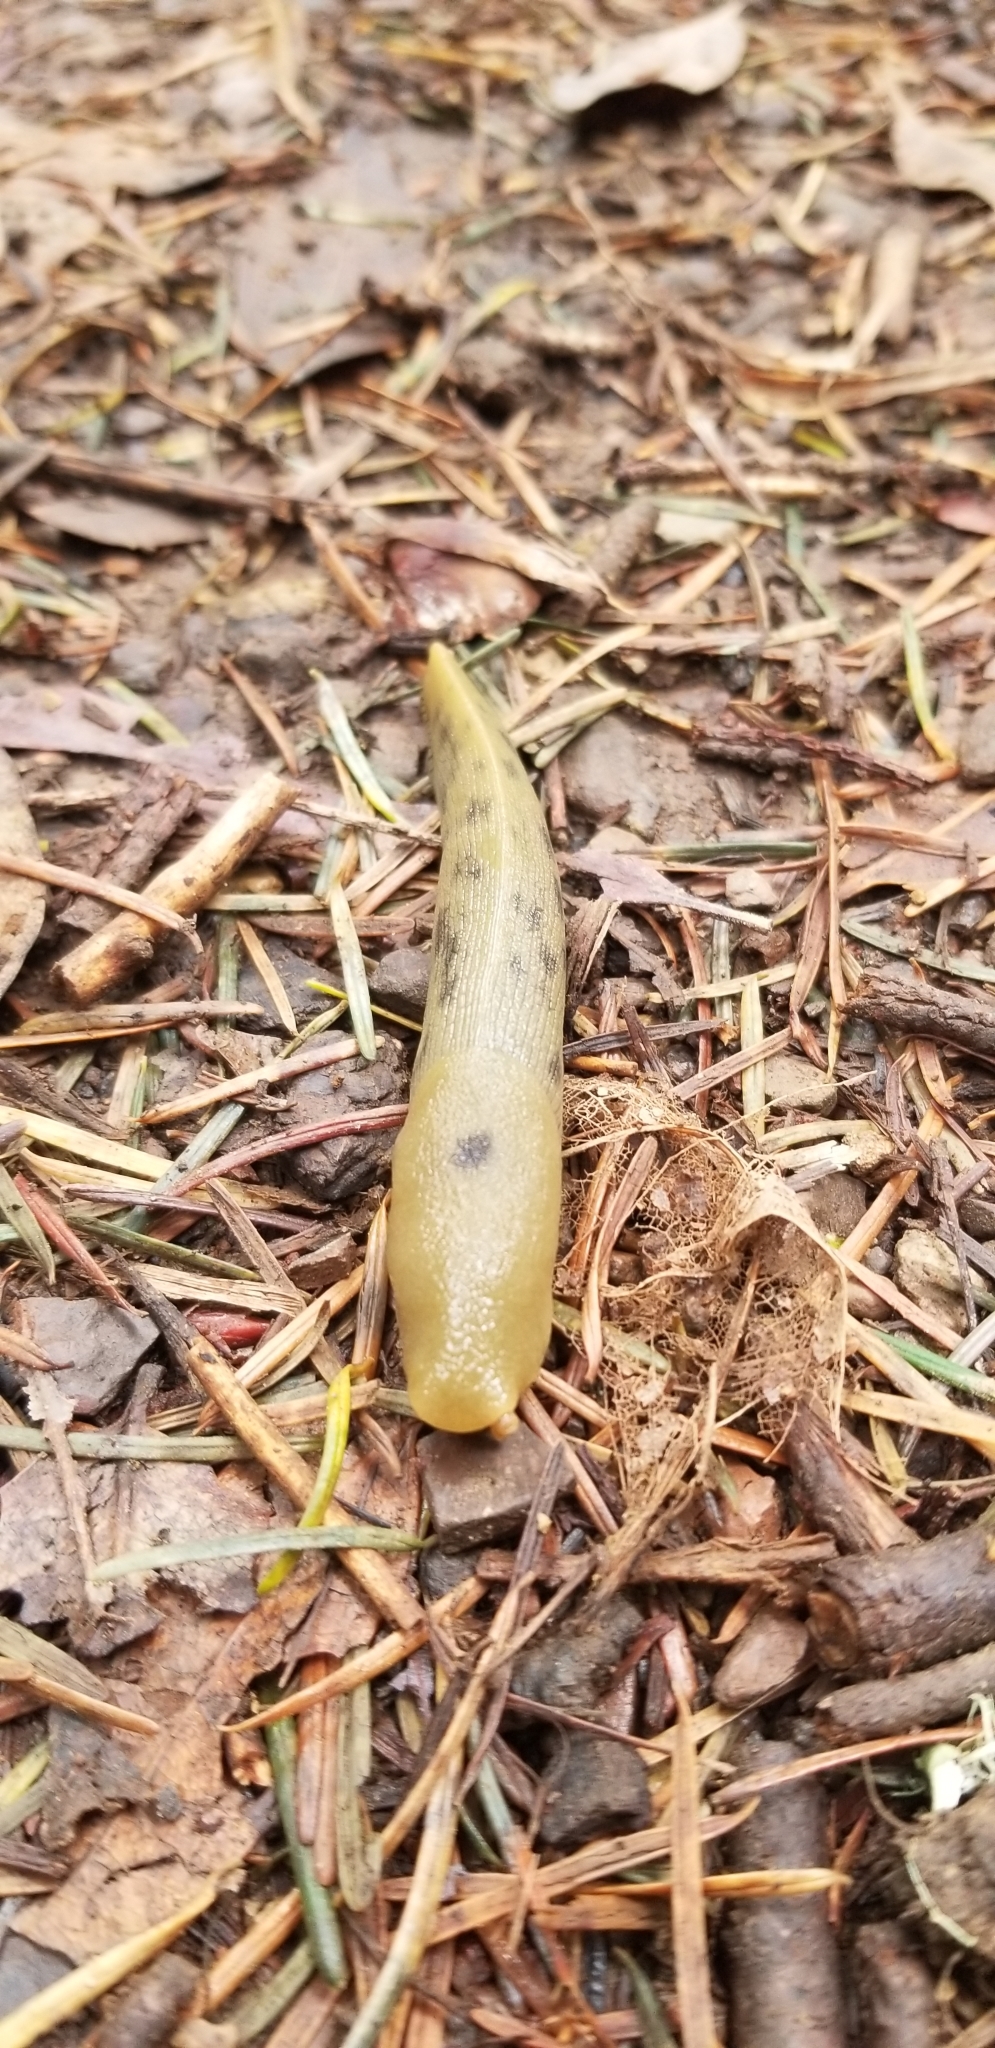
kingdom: Animalia
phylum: Mollusca
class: Gastropoda
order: Stylommatophora
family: Ariolimacidae
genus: Ariolimax
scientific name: Ariolimax buttoni
